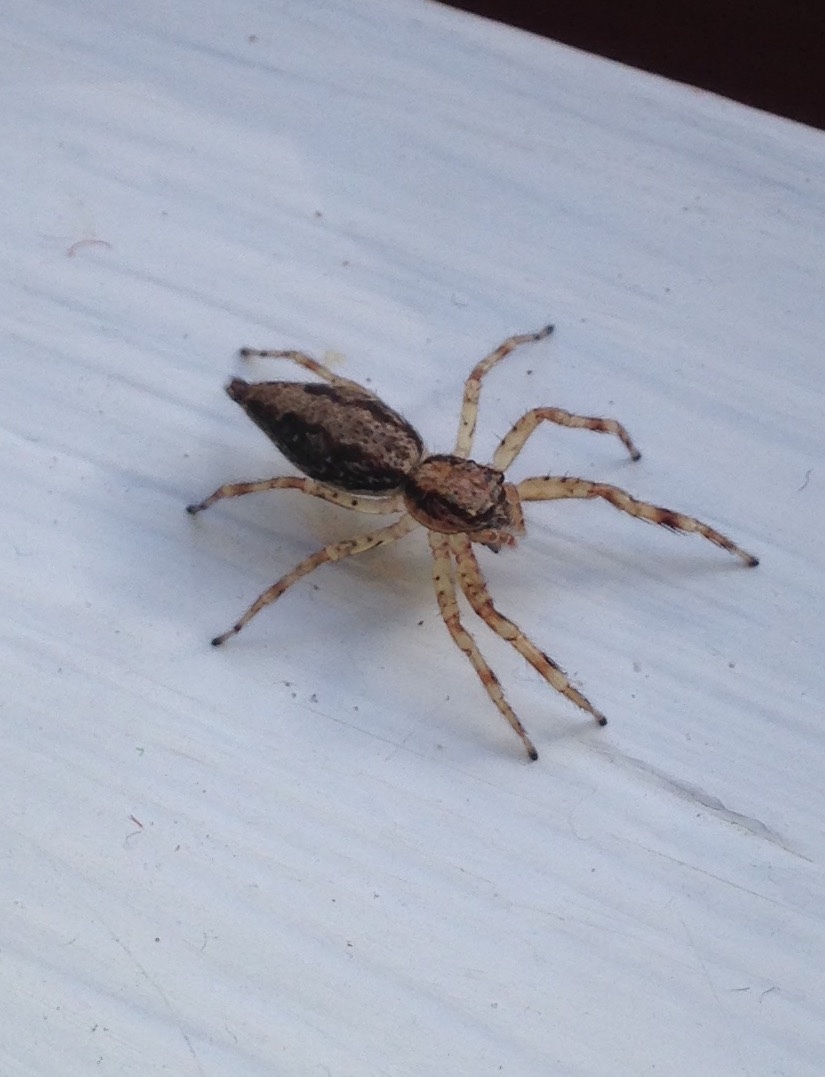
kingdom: Animalia
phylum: Arthropoda
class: Arachnida
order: Araneae
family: Salticidae
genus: Helpis
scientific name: Helpis minitabunda
